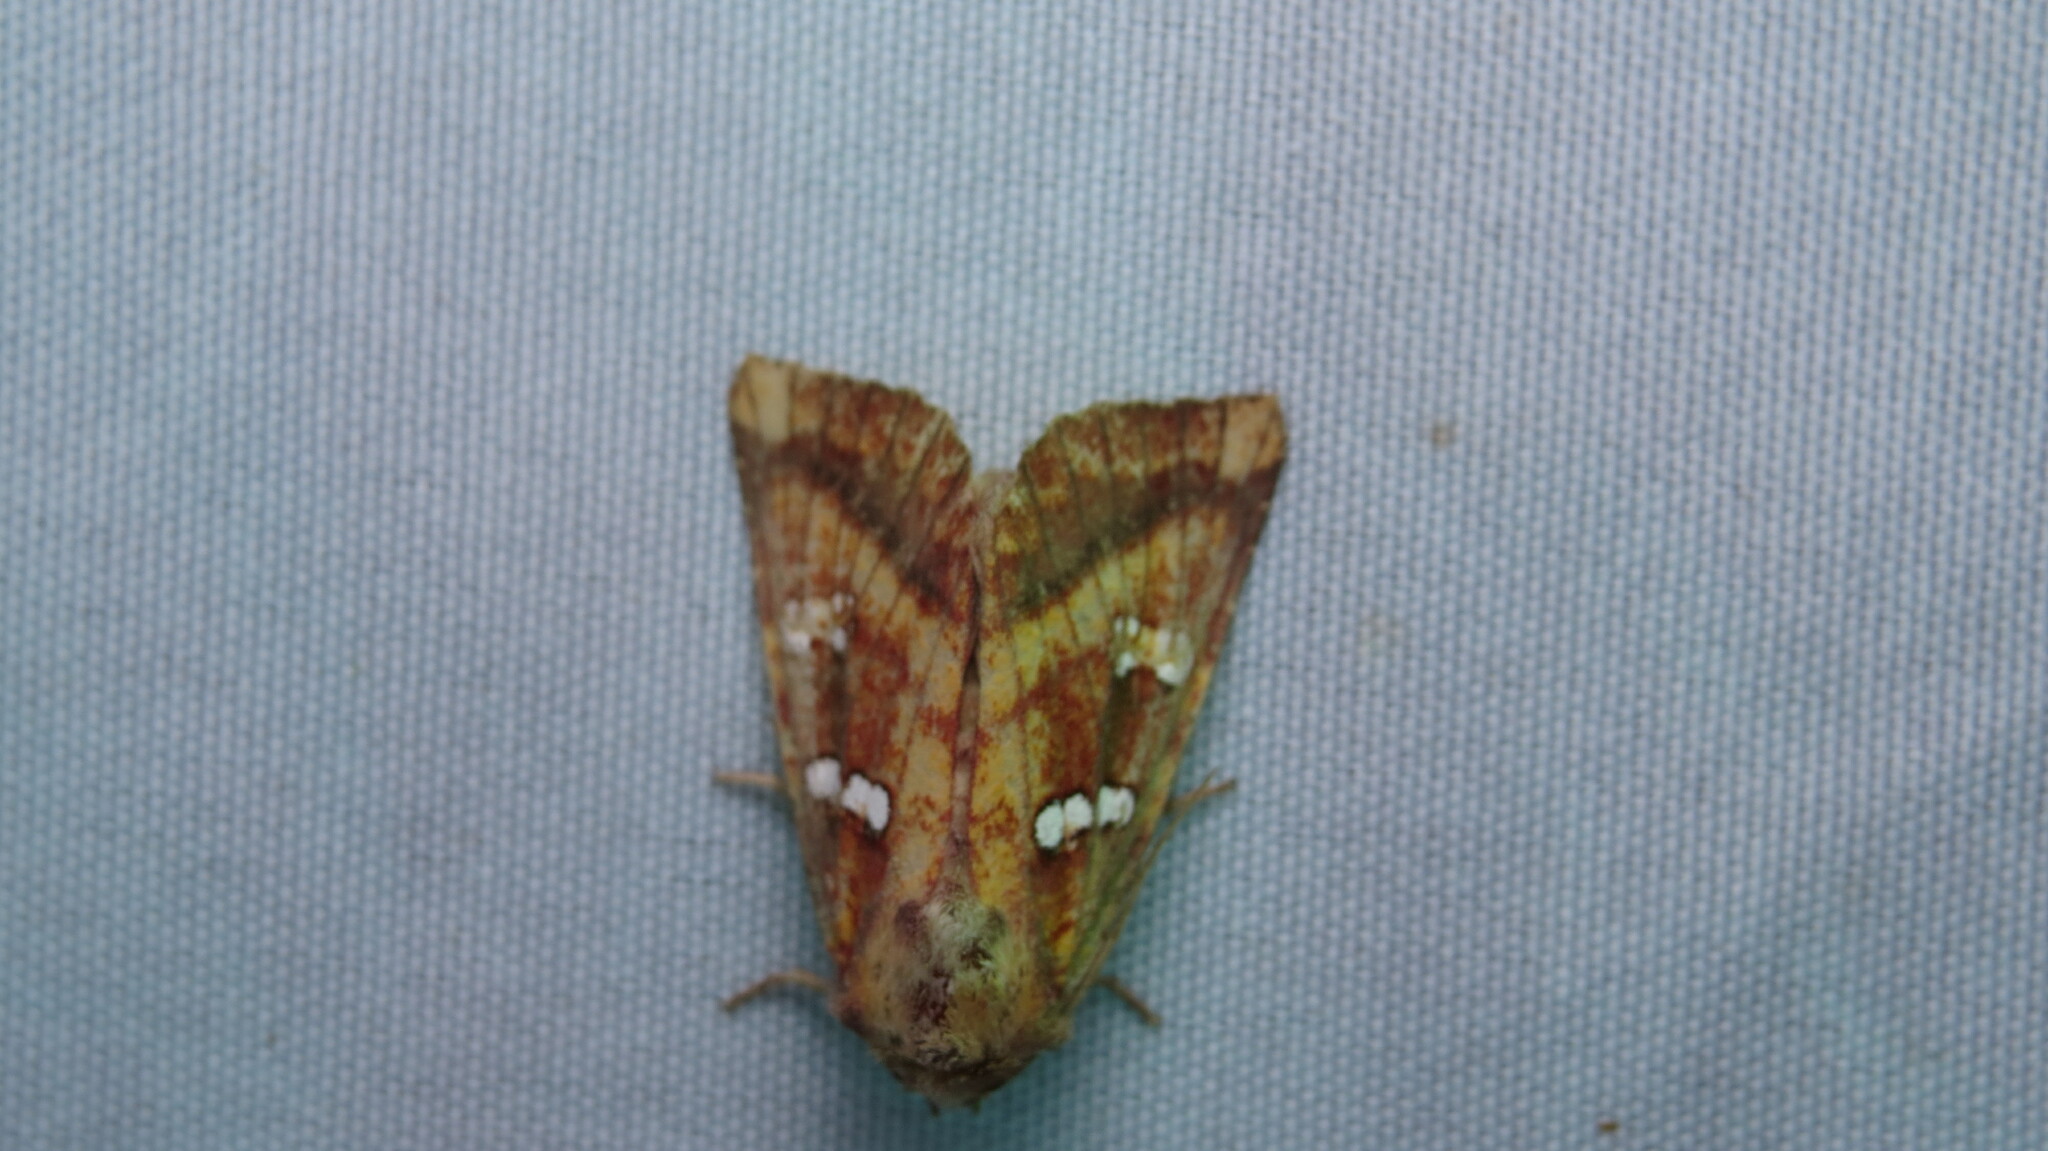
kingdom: Animalia
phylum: Arthropoda
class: Insecta
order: Lepidoptera
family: Noctuidae
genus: Papaipema
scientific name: Papaipema pterisii
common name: Bracken borer moth
